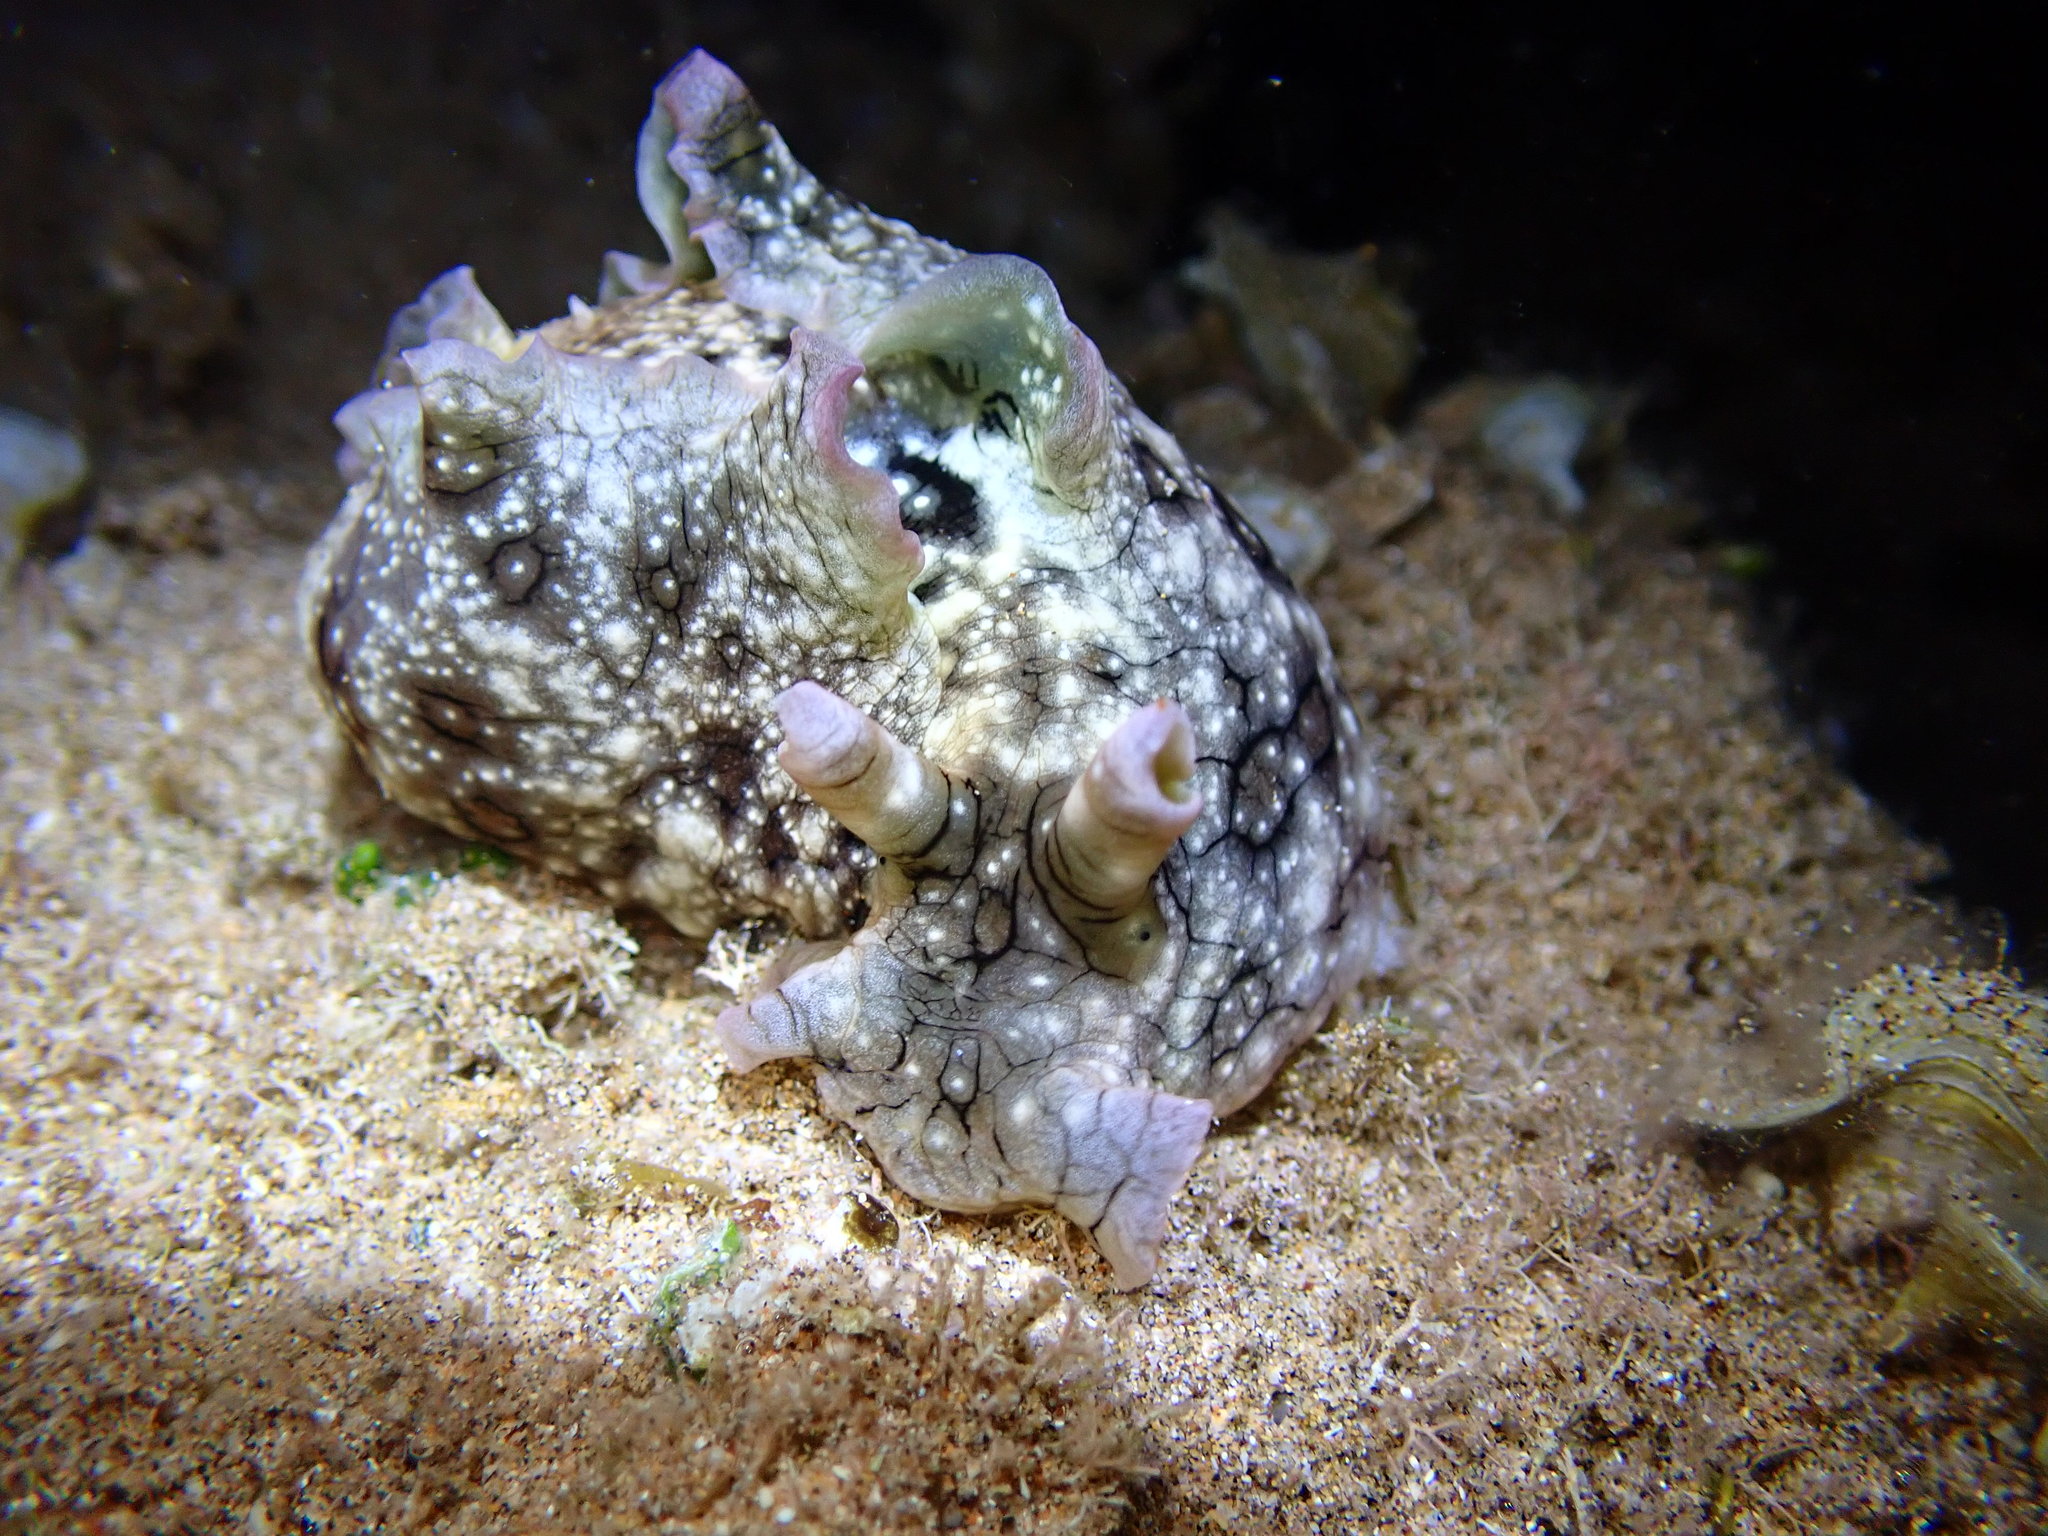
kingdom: Animalia
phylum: Mollusca
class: Gastropoda
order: Aplysiida
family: Aplysiidae
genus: Aplysia
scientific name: Aplysia argus
